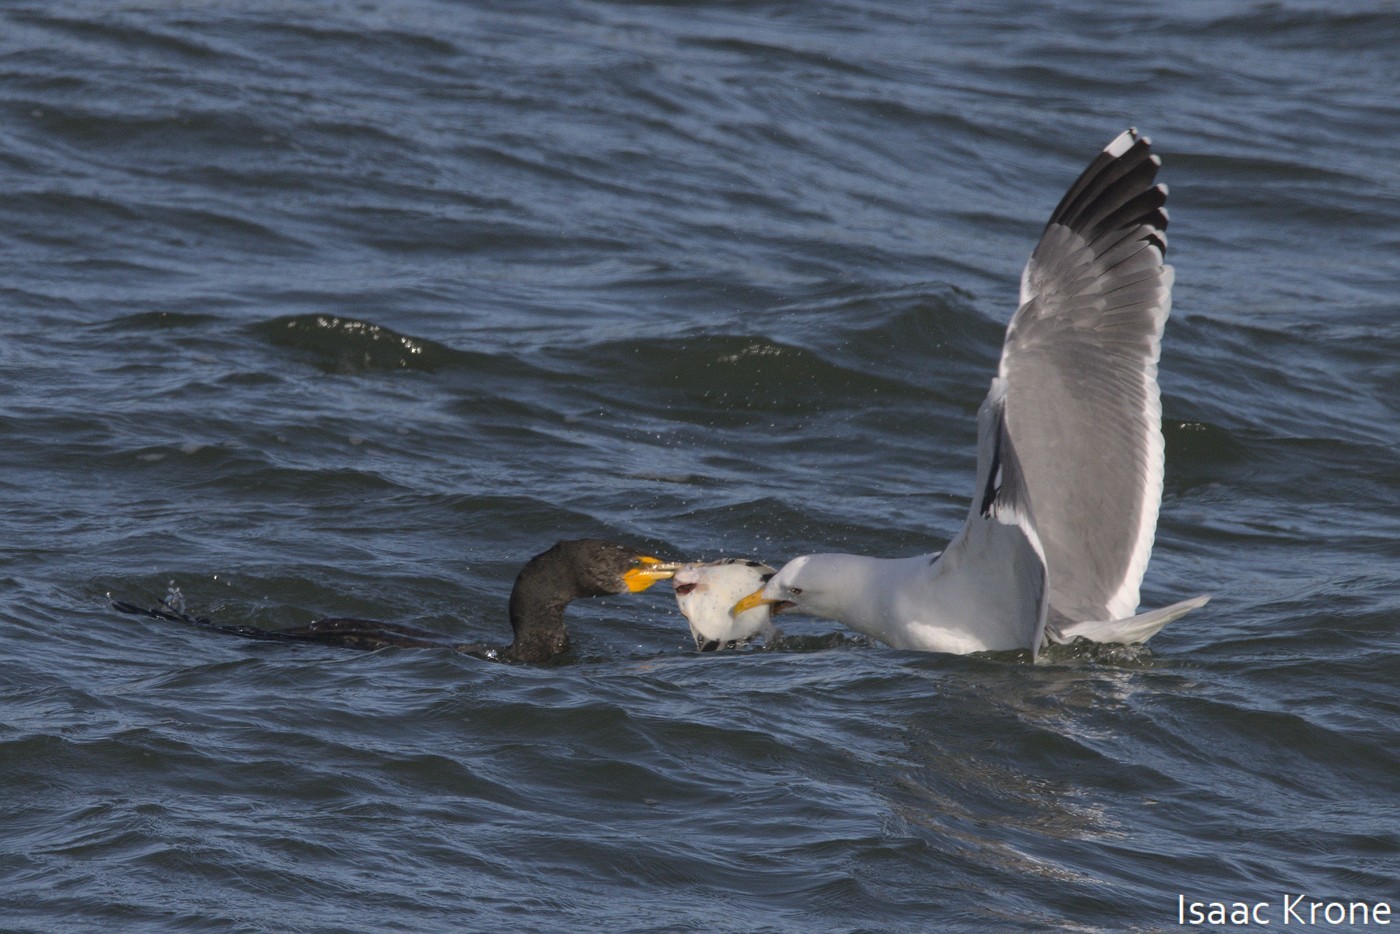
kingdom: Animalia
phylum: Chordata
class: Aves
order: Suliformes
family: Phalacrocoracidae
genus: Phalacrocorax
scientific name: Phalacrocorax auritus
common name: Double-crested cormorant
